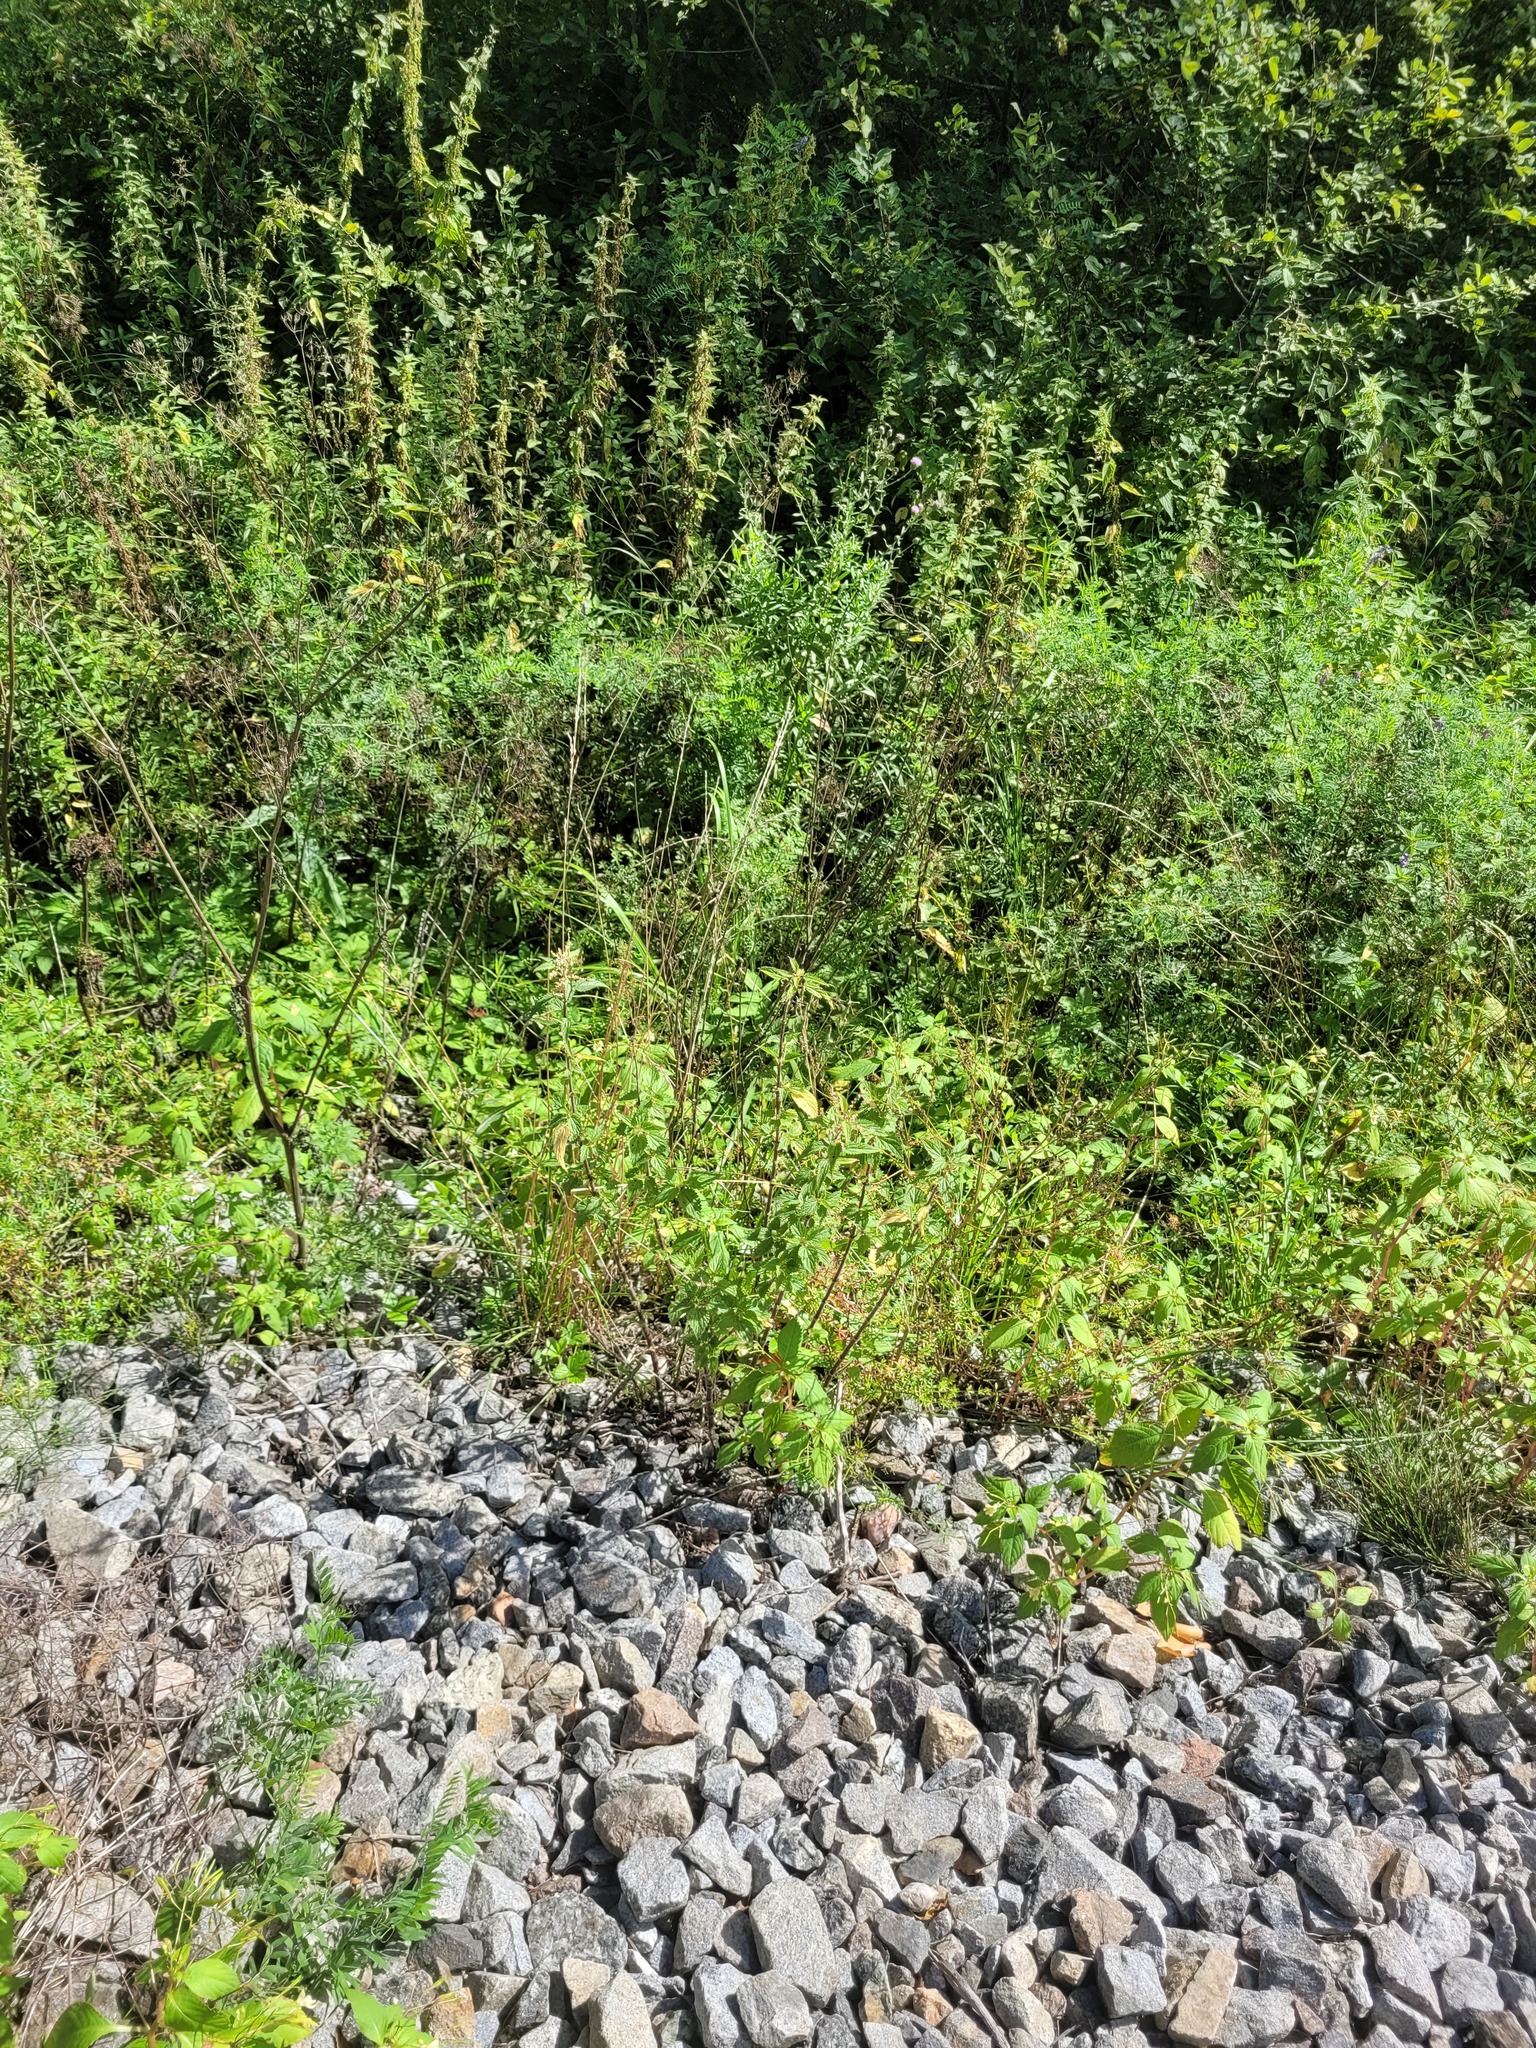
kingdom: Plantae
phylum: Tracheophyta
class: Magnoliopsida
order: Rosales
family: Urticaceae
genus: Urtica
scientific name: Urtica dioica
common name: Common nettle
